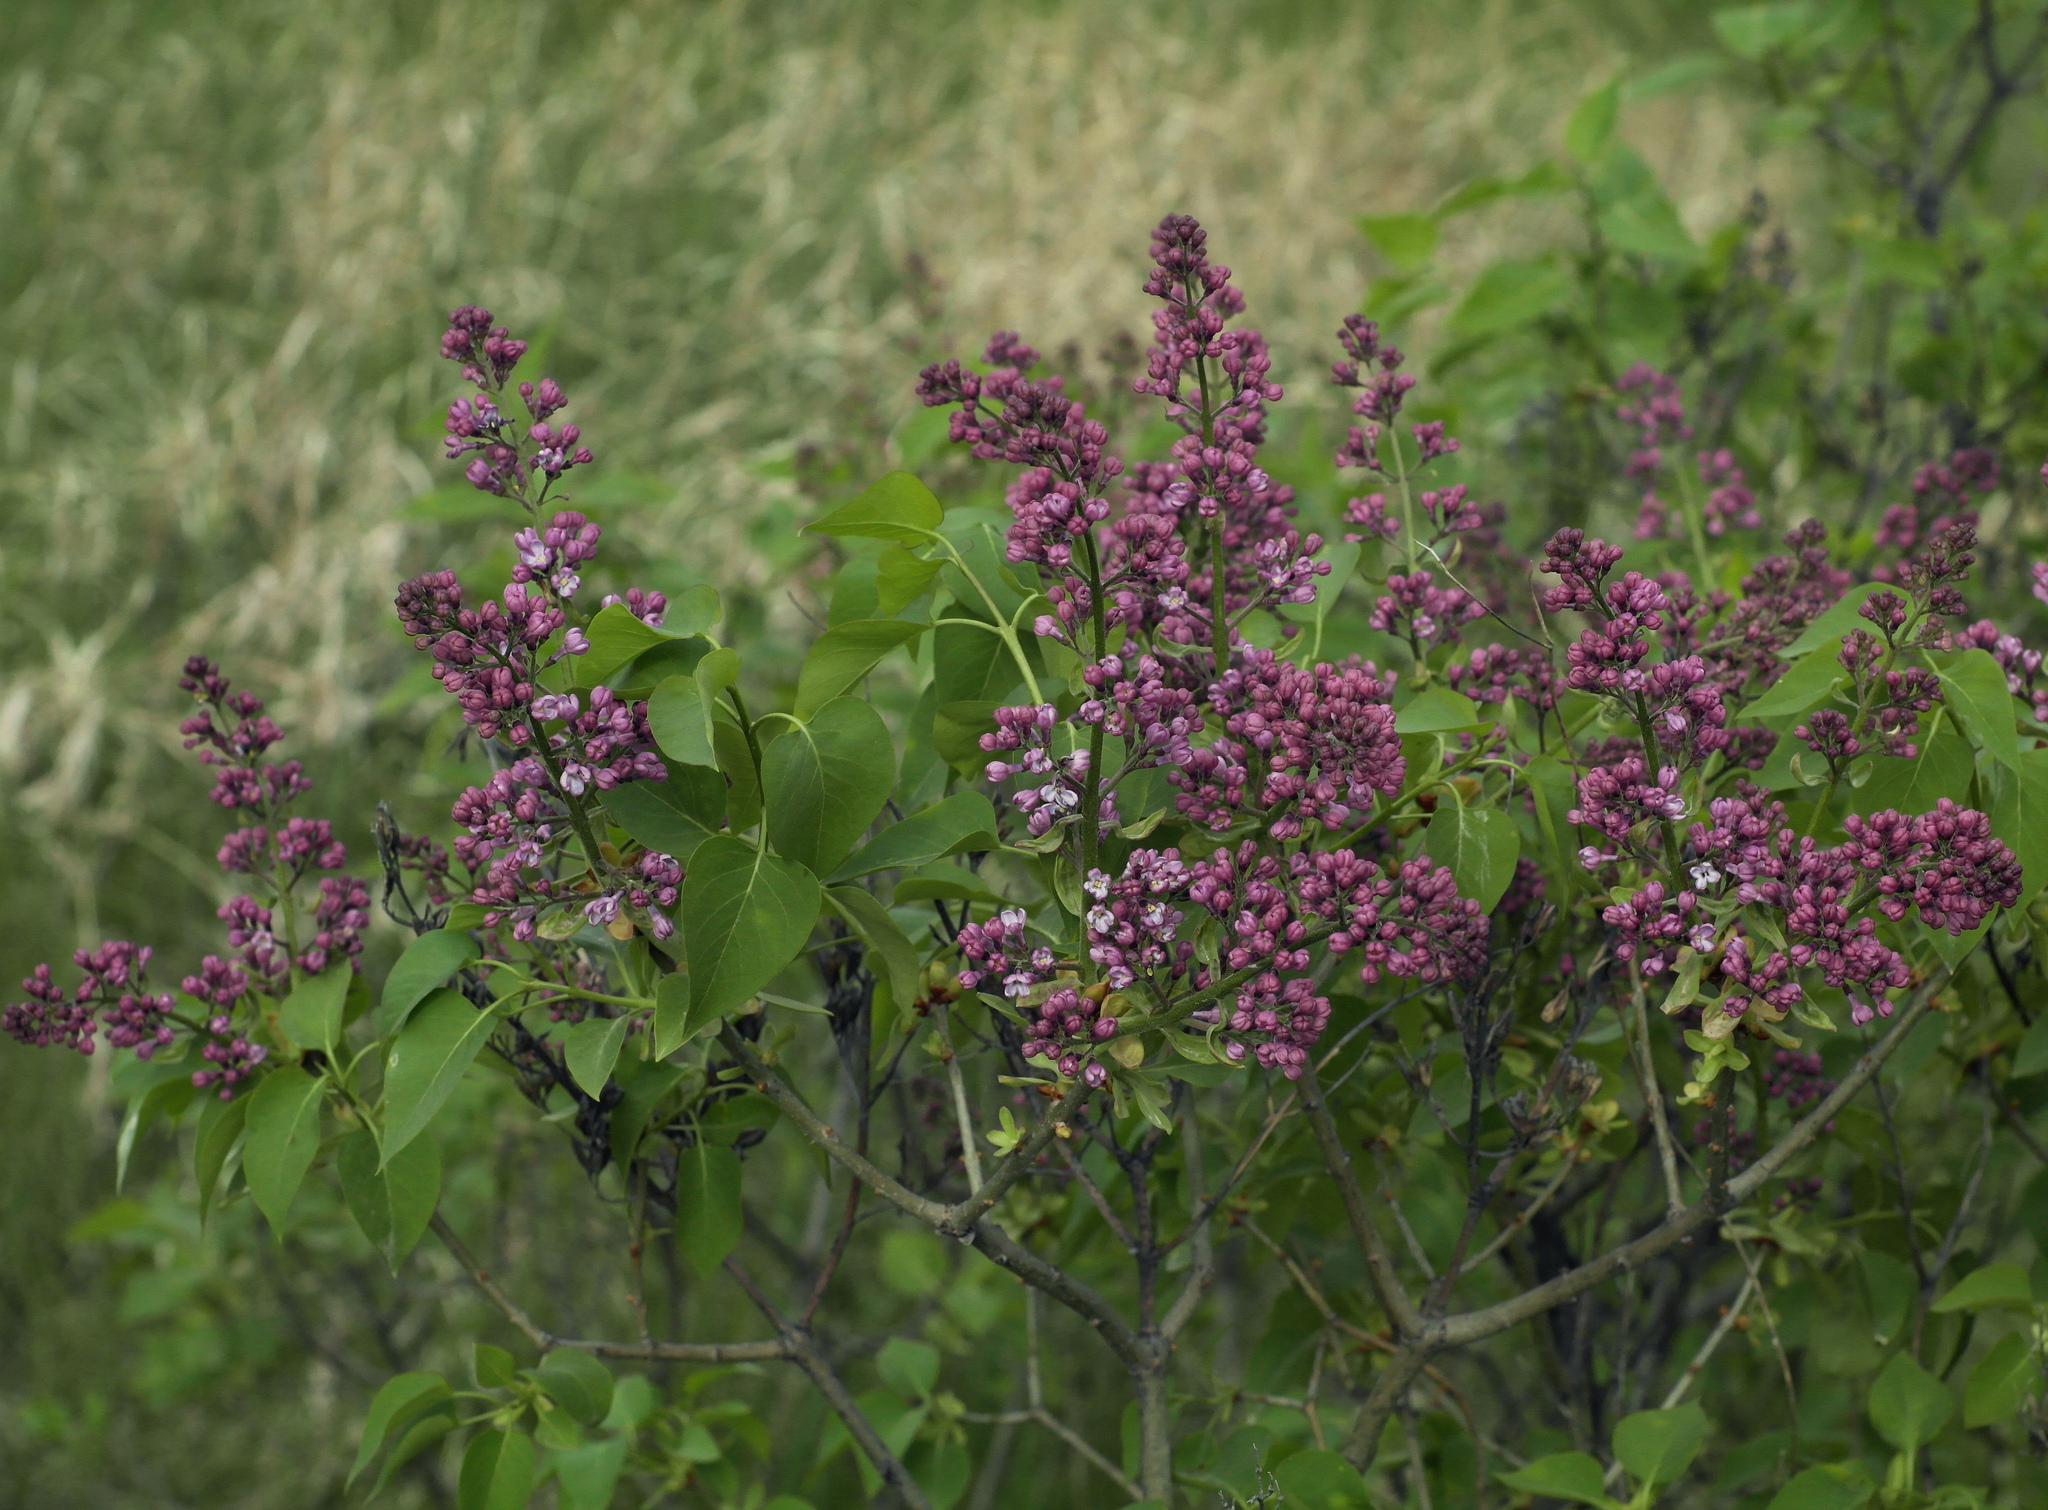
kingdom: Plantae
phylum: Tracheophyta
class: Magnoliopsida
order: Lamiales
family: Oleaceae
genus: Syringa
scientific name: Syringa vulgaris
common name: Common lilac
